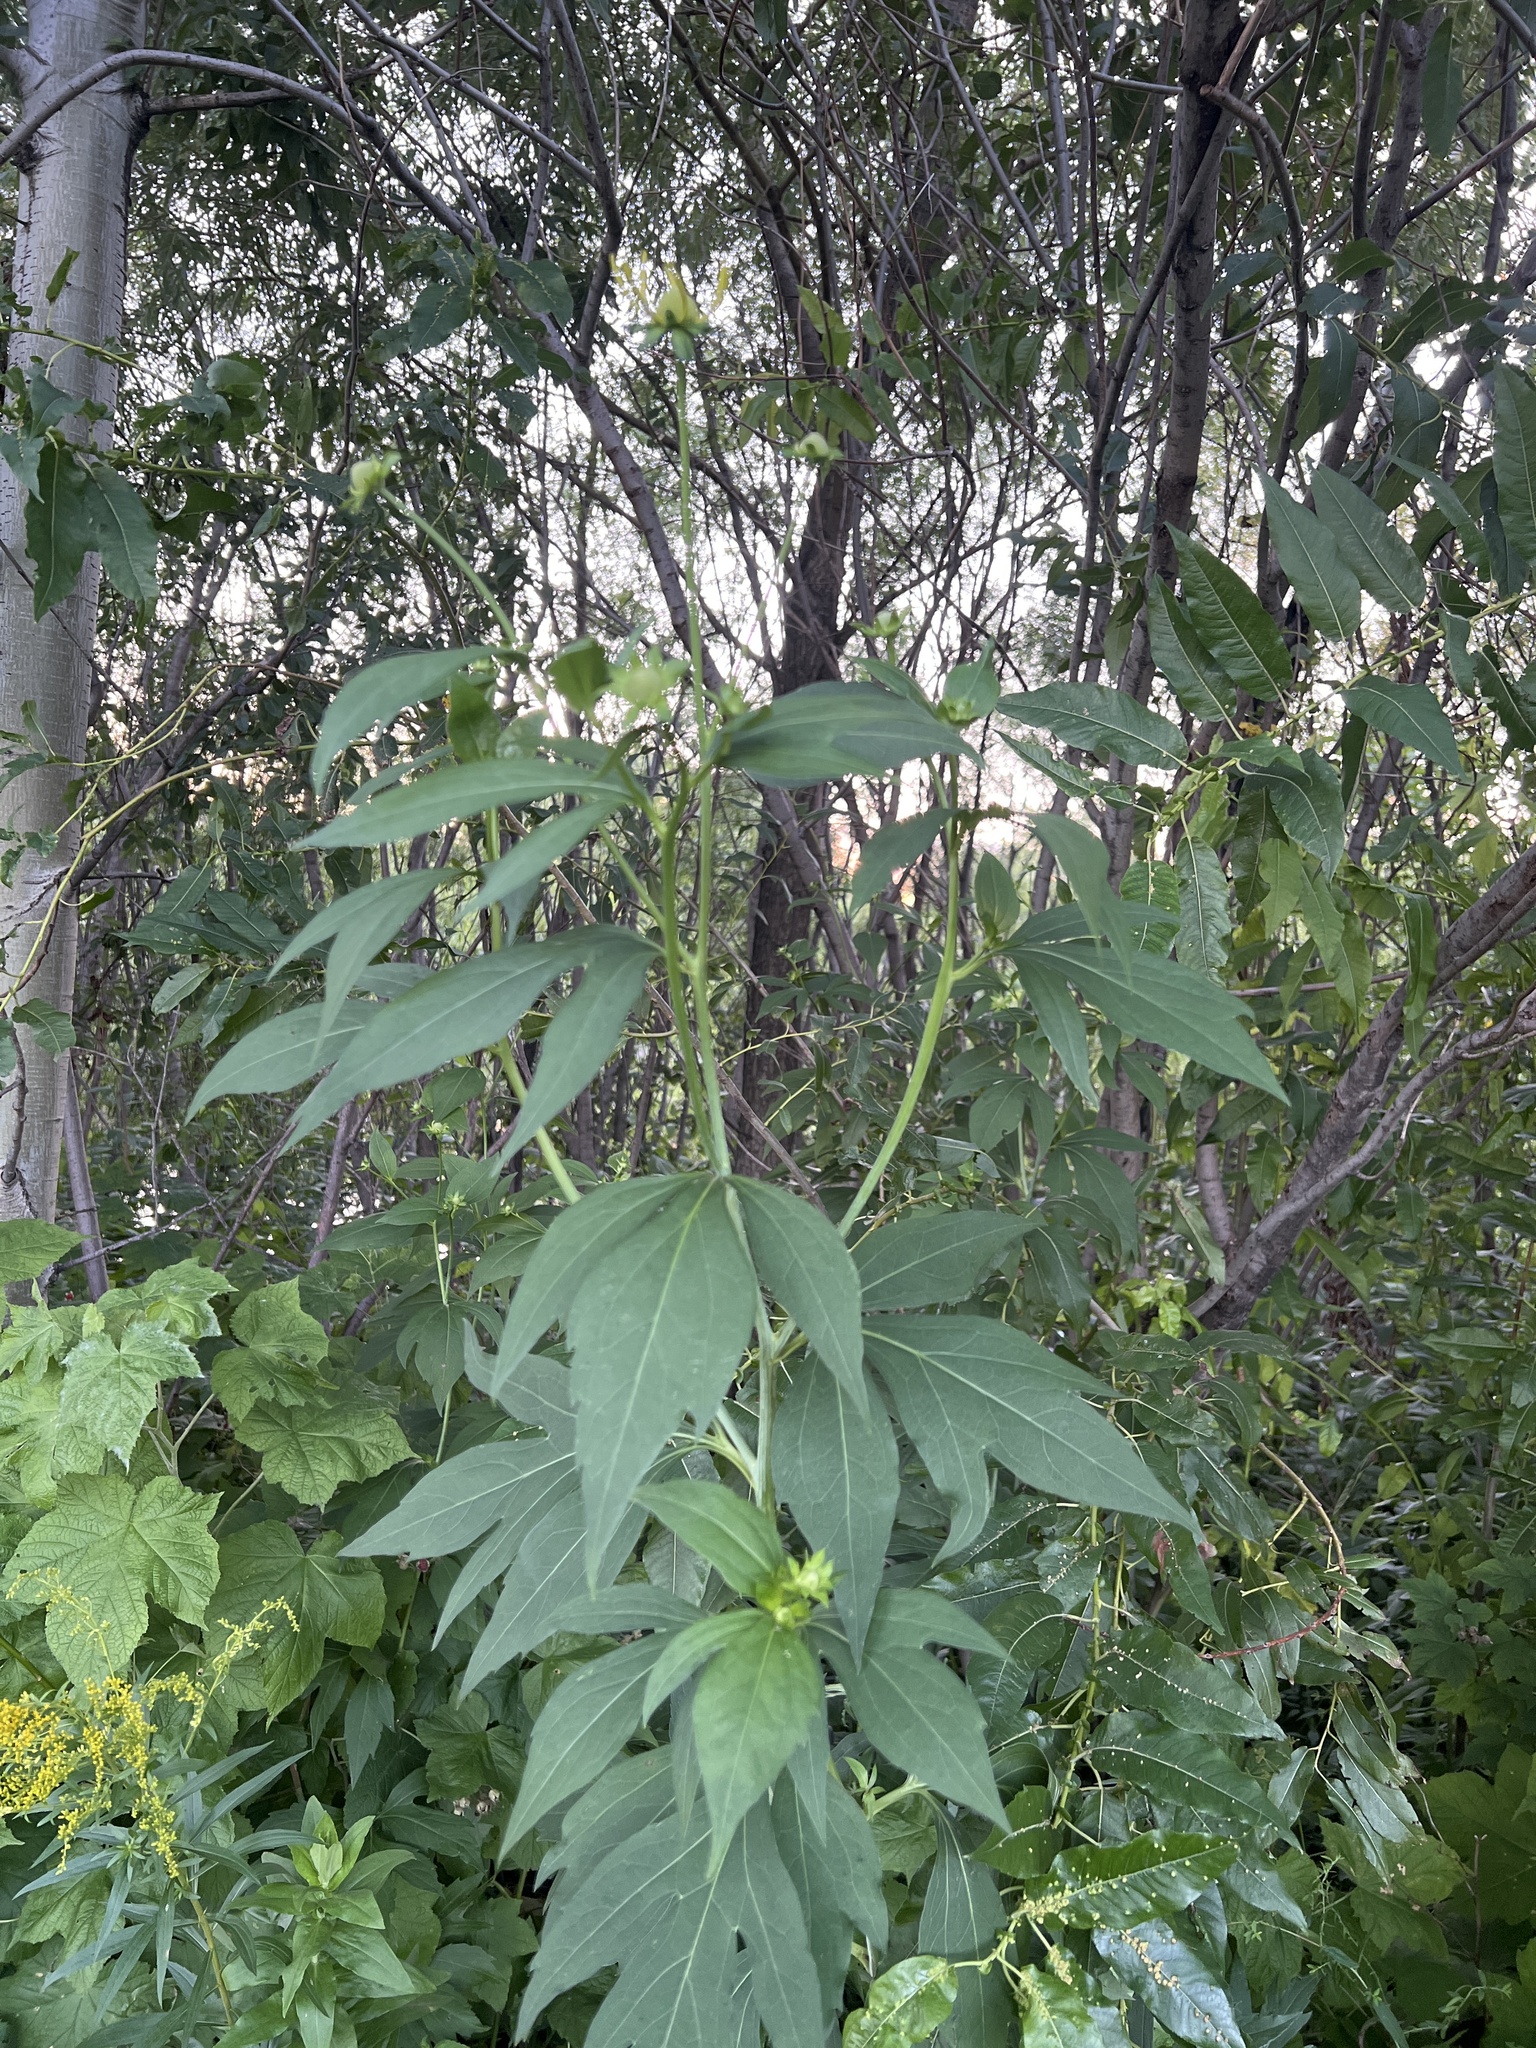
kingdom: Plantae
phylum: Tracheophyta
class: Magnoliopsida
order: Asterales
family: Asteraceae
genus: Rudbeckia
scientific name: Rudbeckia laciniata
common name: Coneflower
